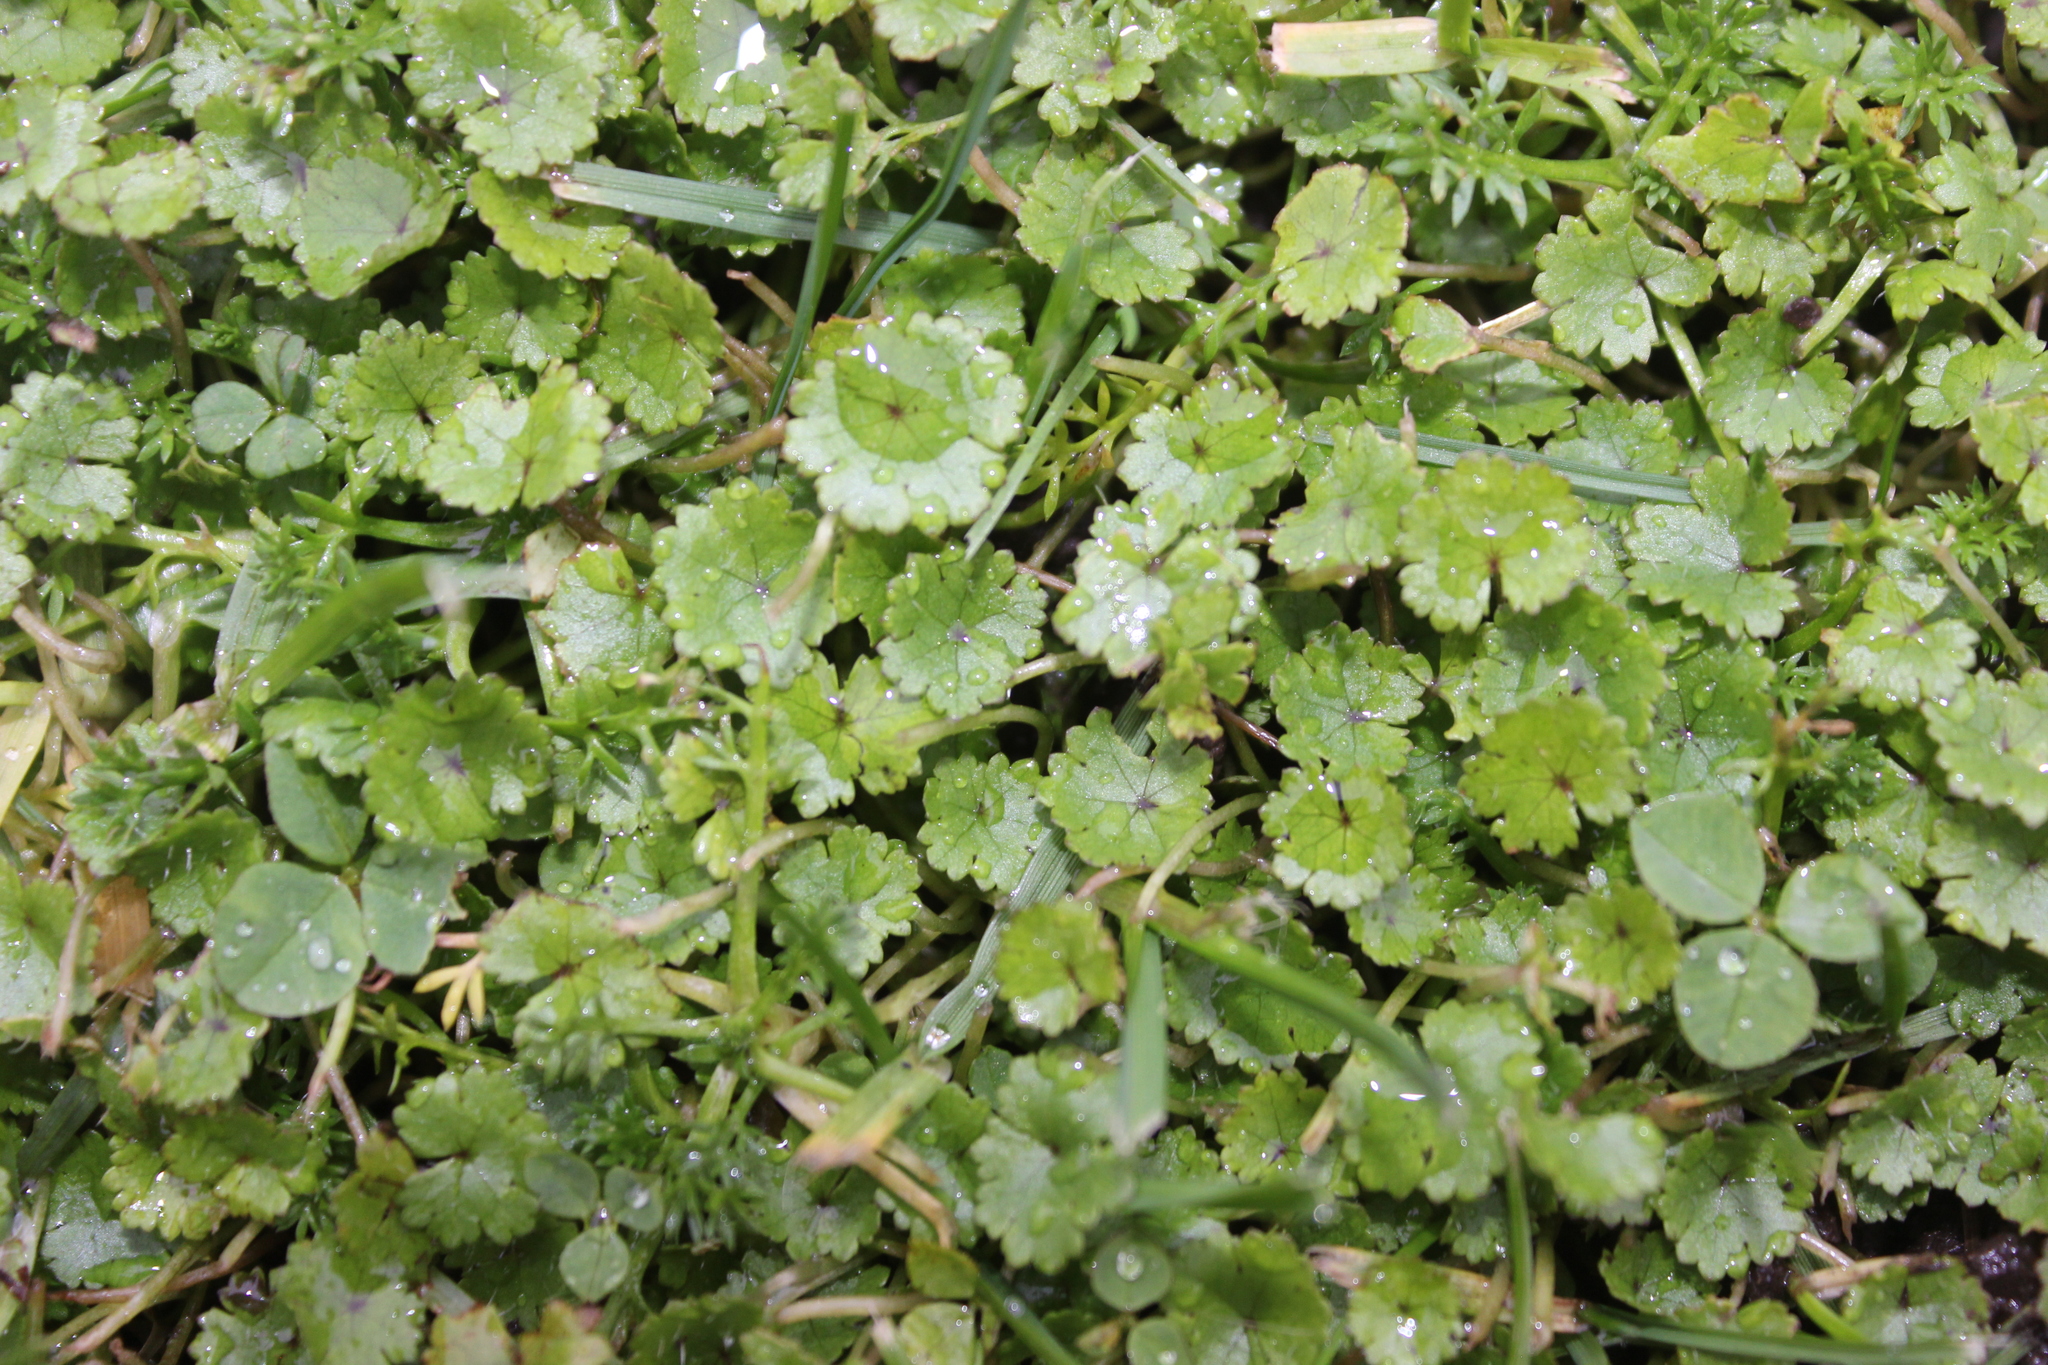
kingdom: Plantae
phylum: Tracheophyta
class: Magnoliopsida
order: Apiales
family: Araliaceae
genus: Hydrocotyle
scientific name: Hydrocotyle microphylla
